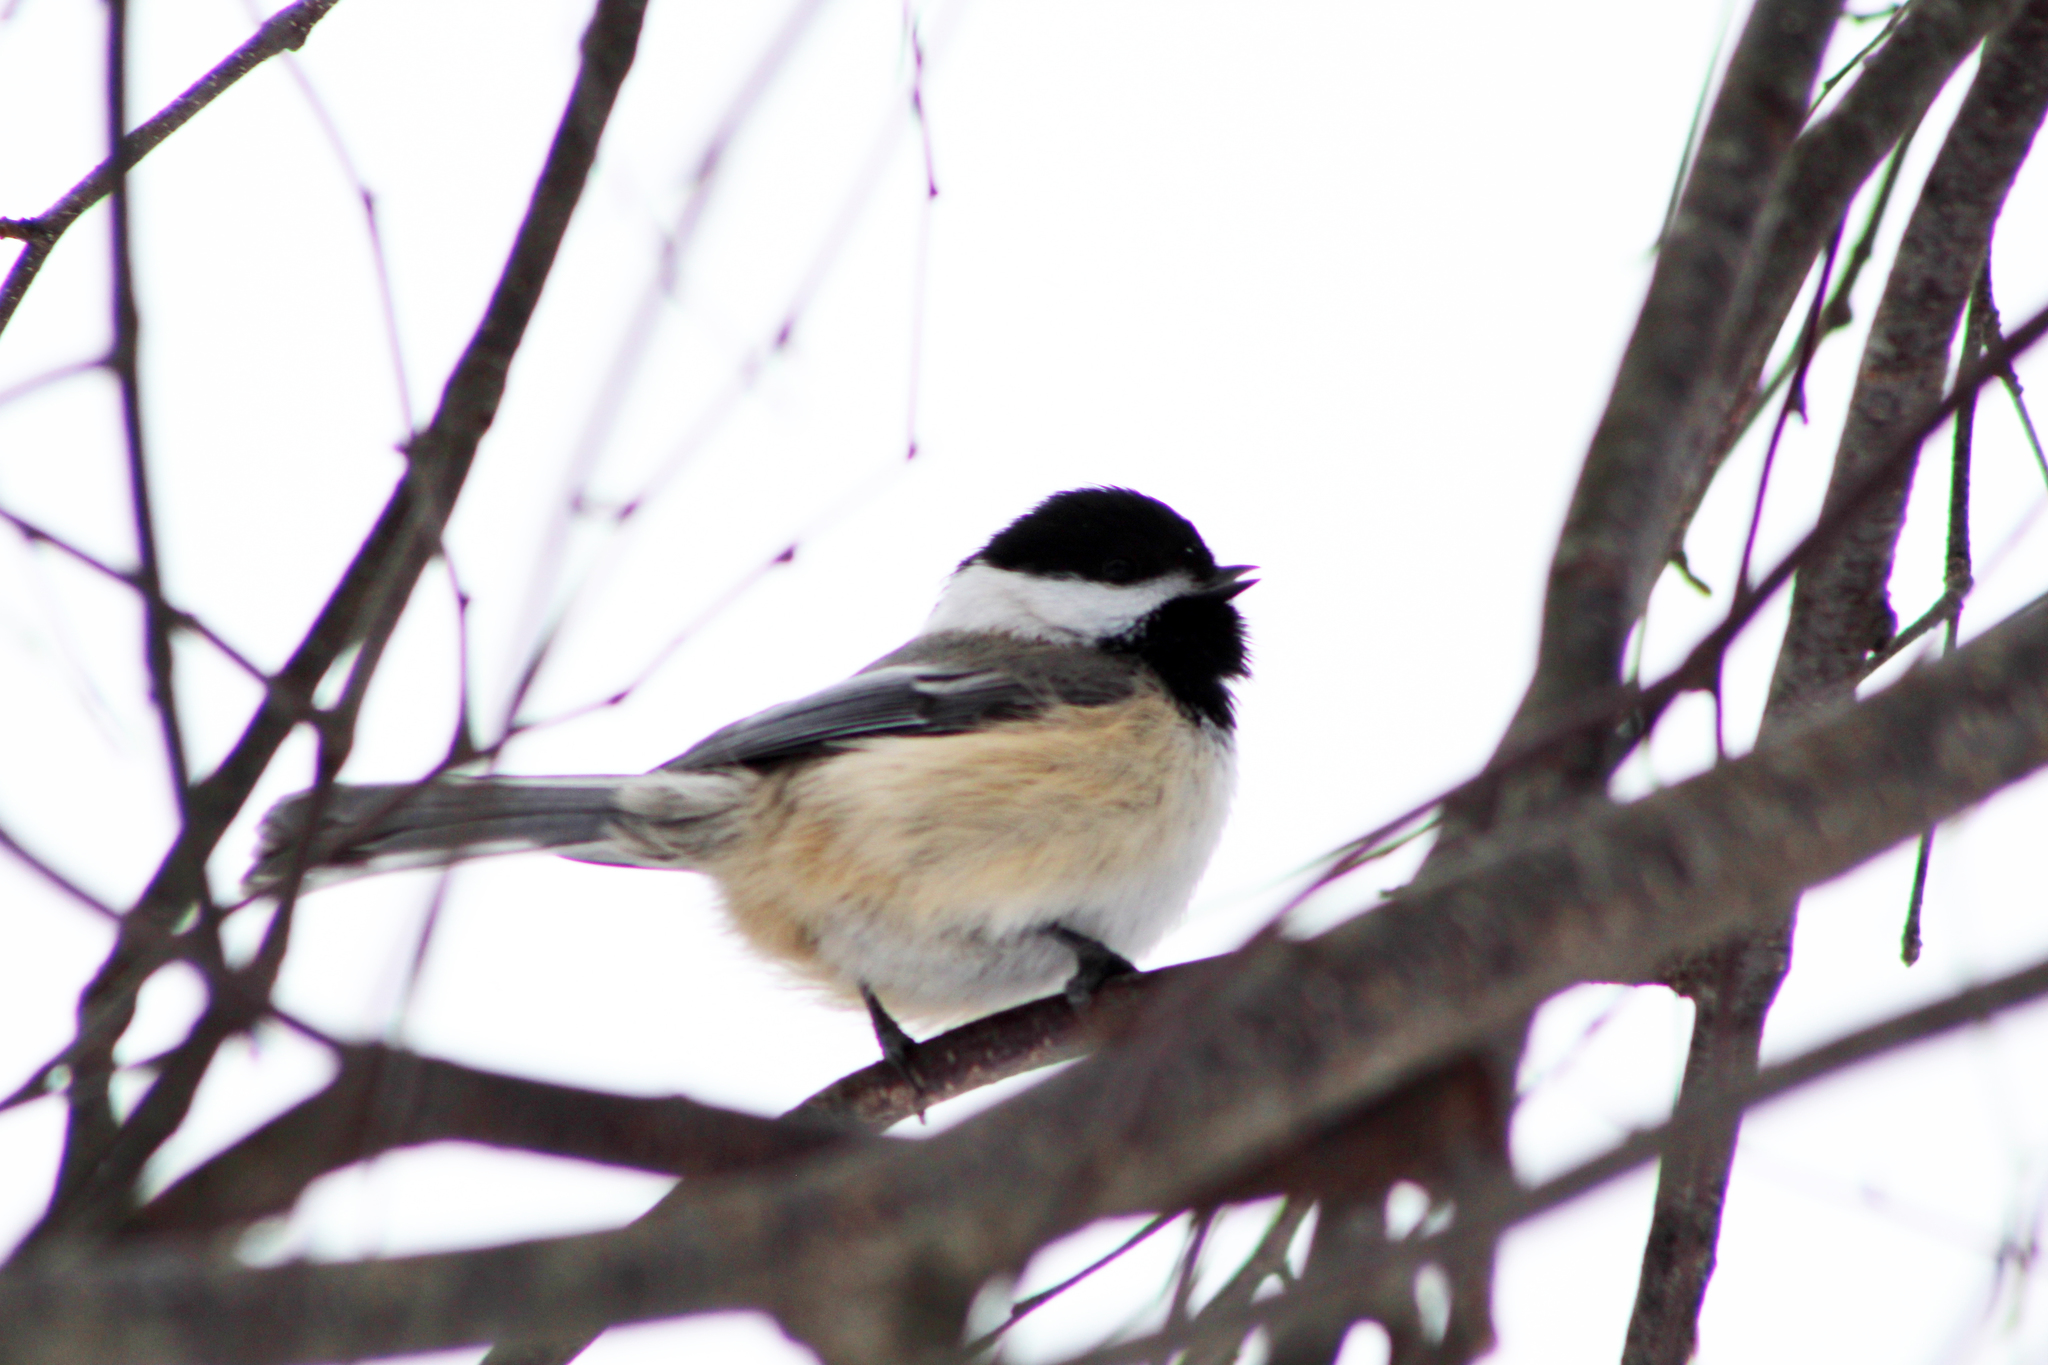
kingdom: Animalia
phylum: Chordata
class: Aves
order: Passeriformes
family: Paridae
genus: Poecile
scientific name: Poecile atricapillus
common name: Black-capped chickadee
